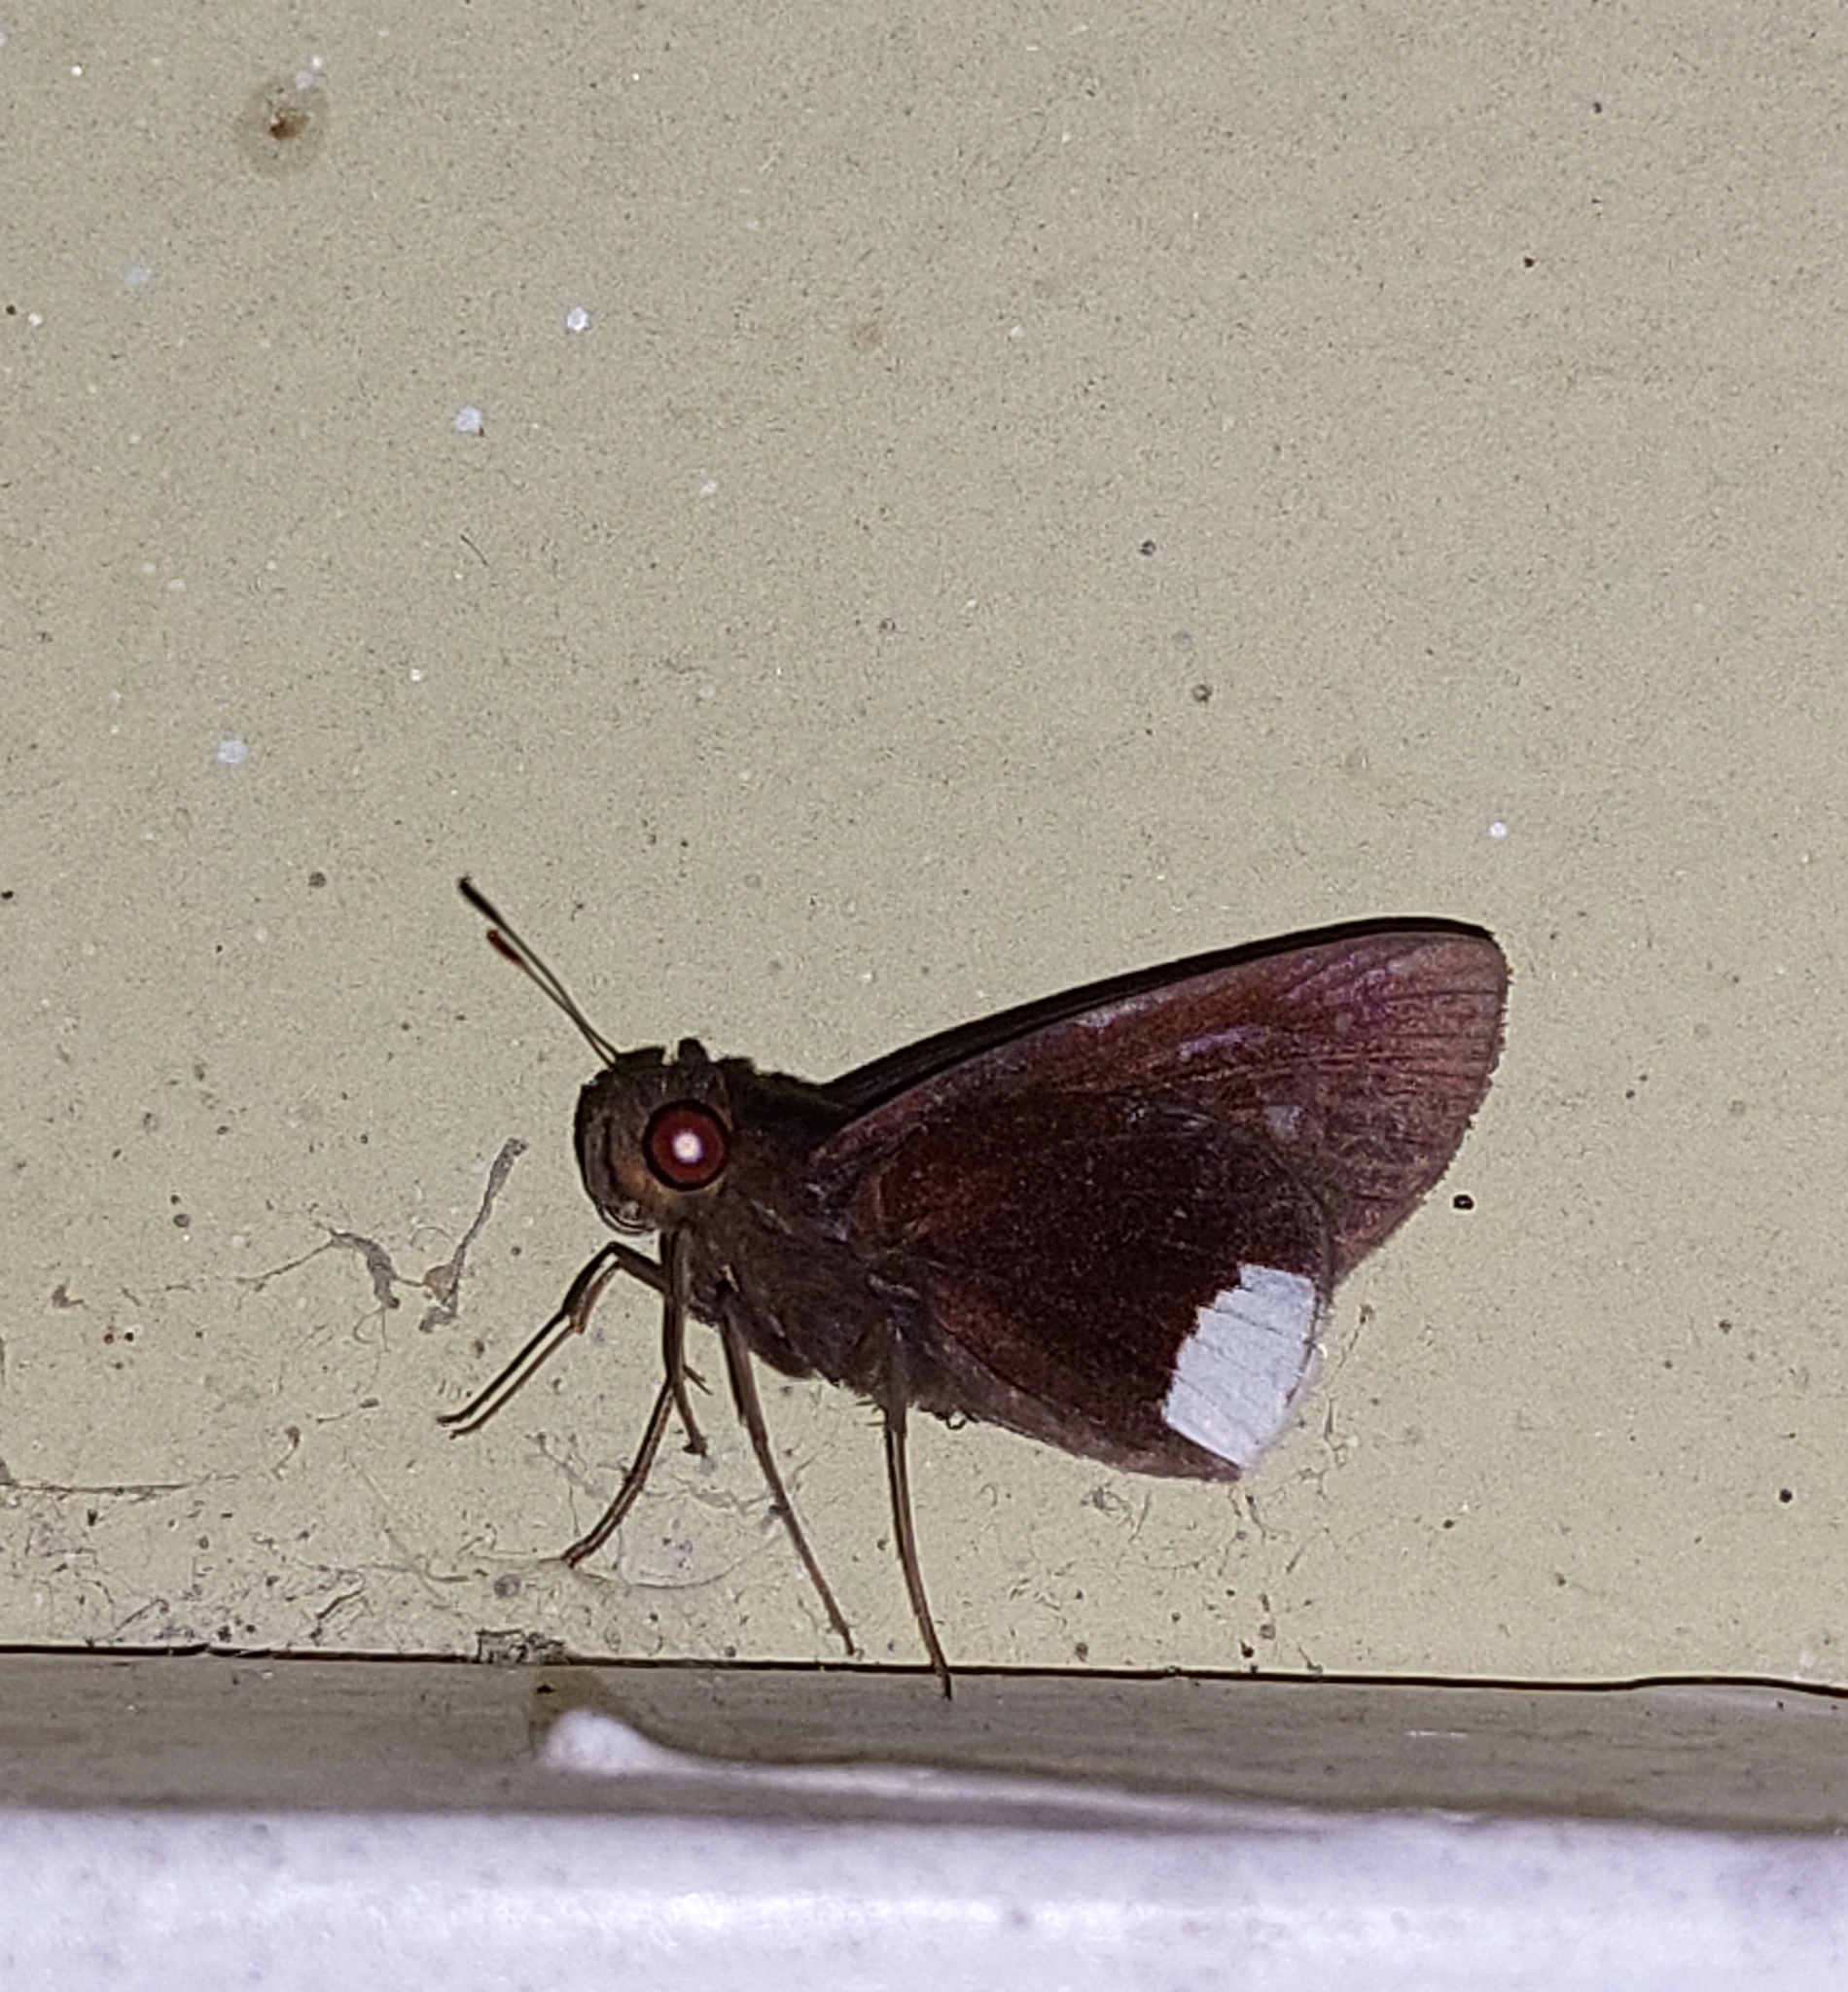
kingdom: Animalia
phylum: Arthropoda
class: Insecta
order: Lepidoptera
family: Hesperiidae
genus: Cobalus
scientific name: Cobalus virbius
